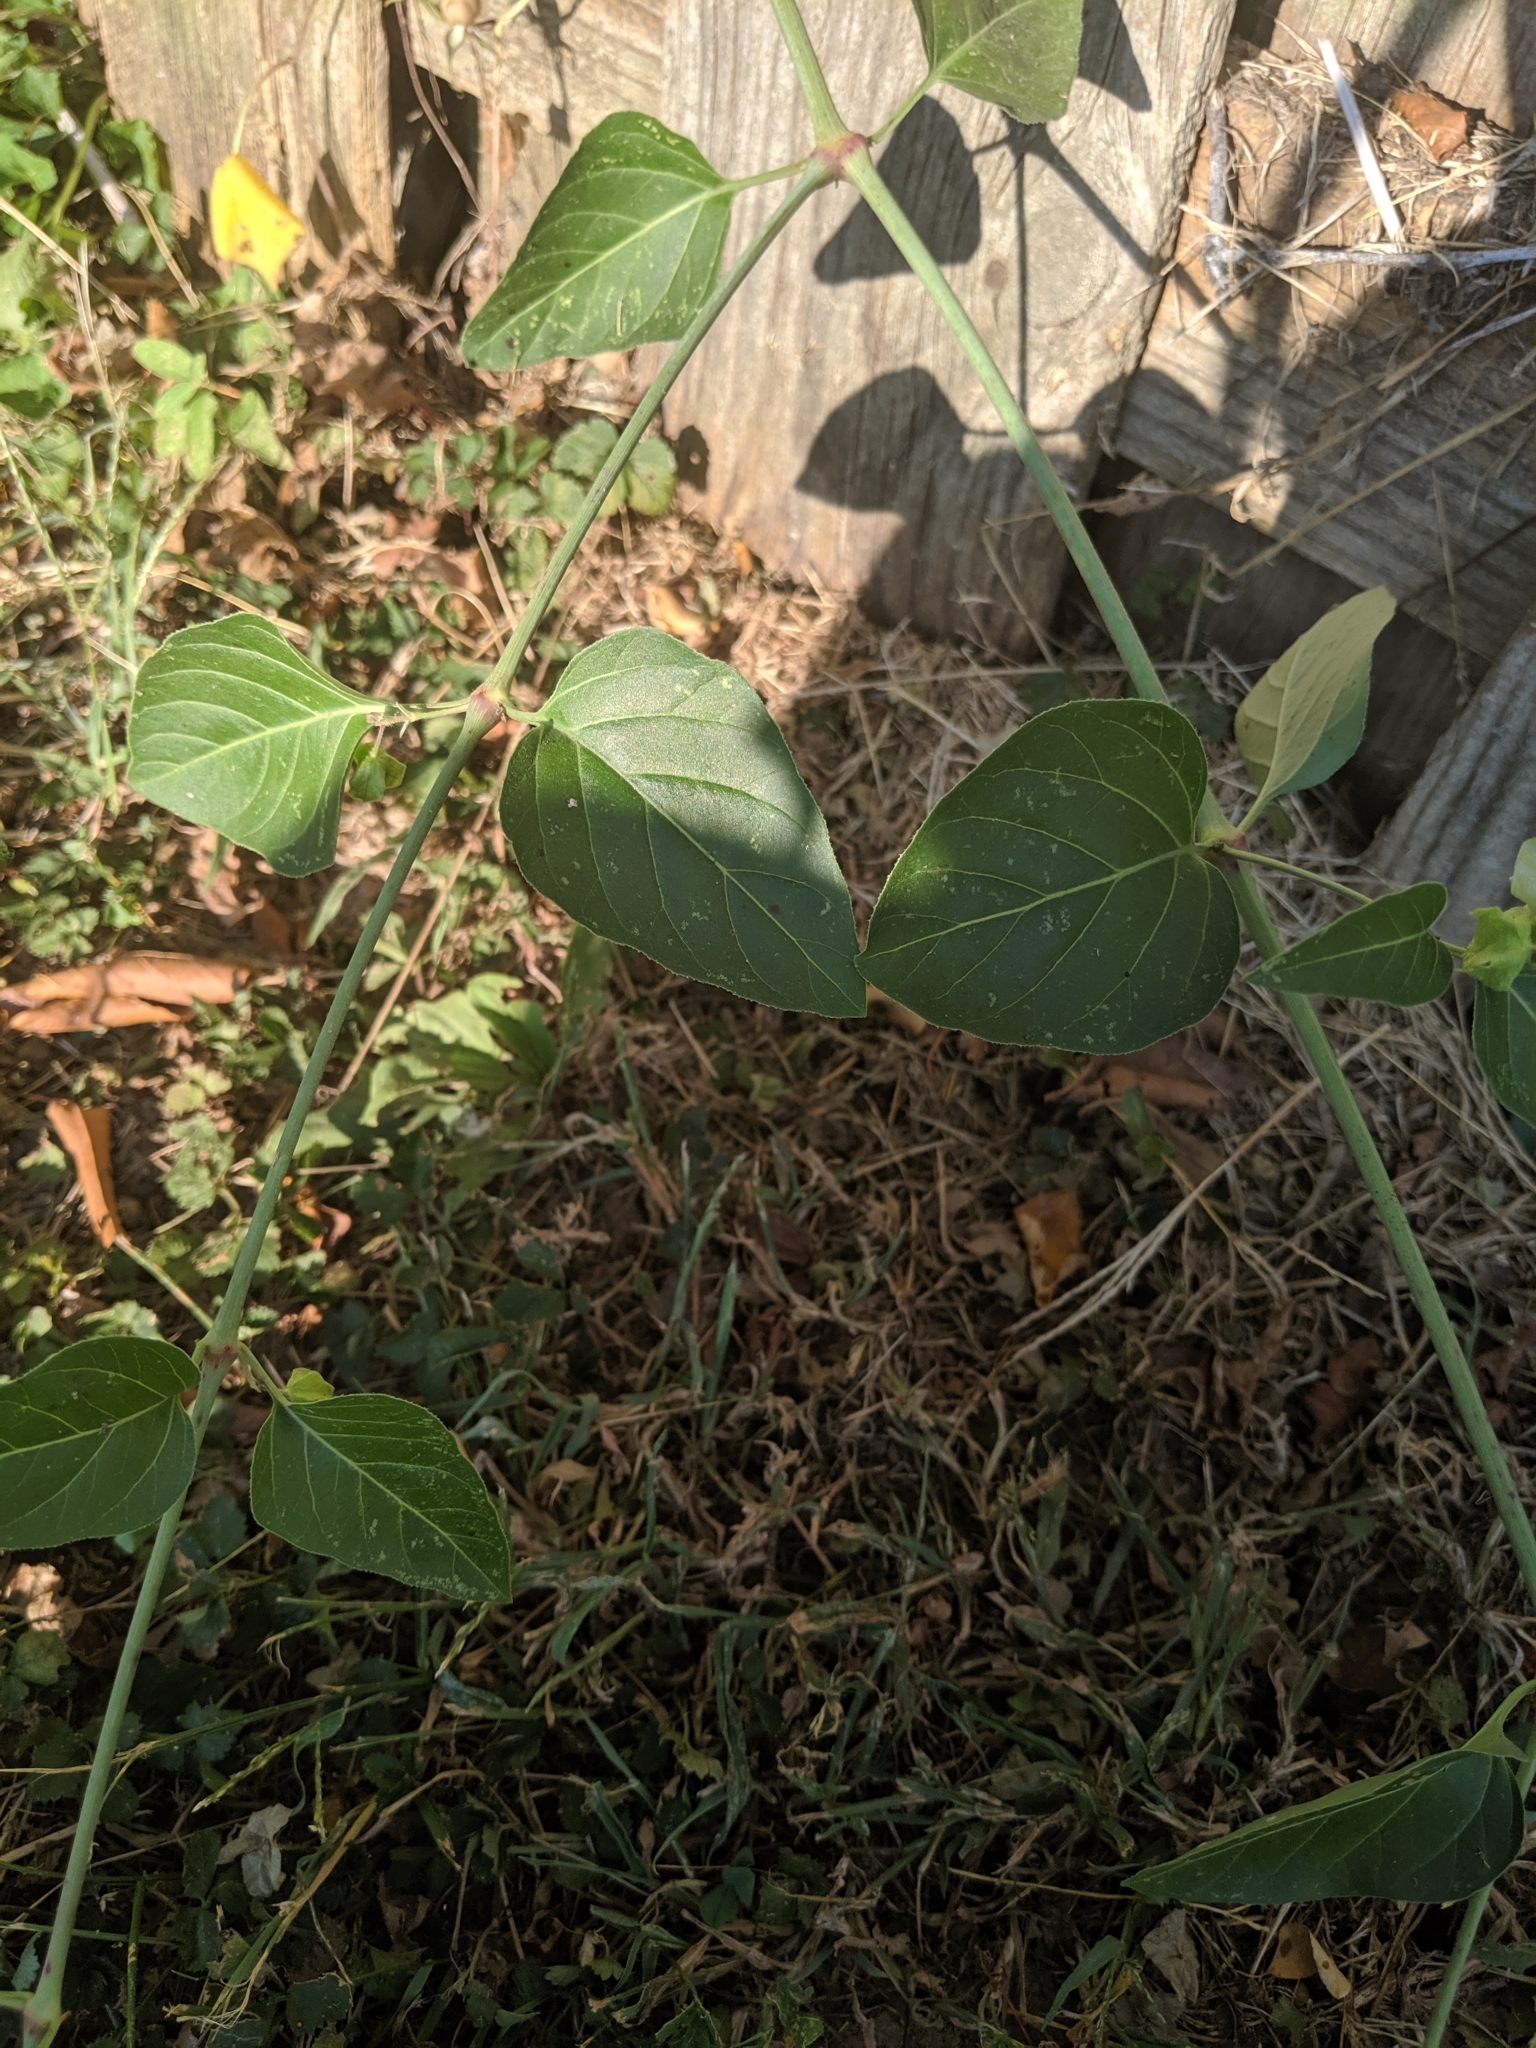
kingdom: Plantae
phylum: Tracheophyta
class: Magnoliopsida
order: Caryophyllales
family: Nyctaginaceae
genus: Mirabilis
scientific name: Mirabilis nyctaginea
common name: Umbrella wort
